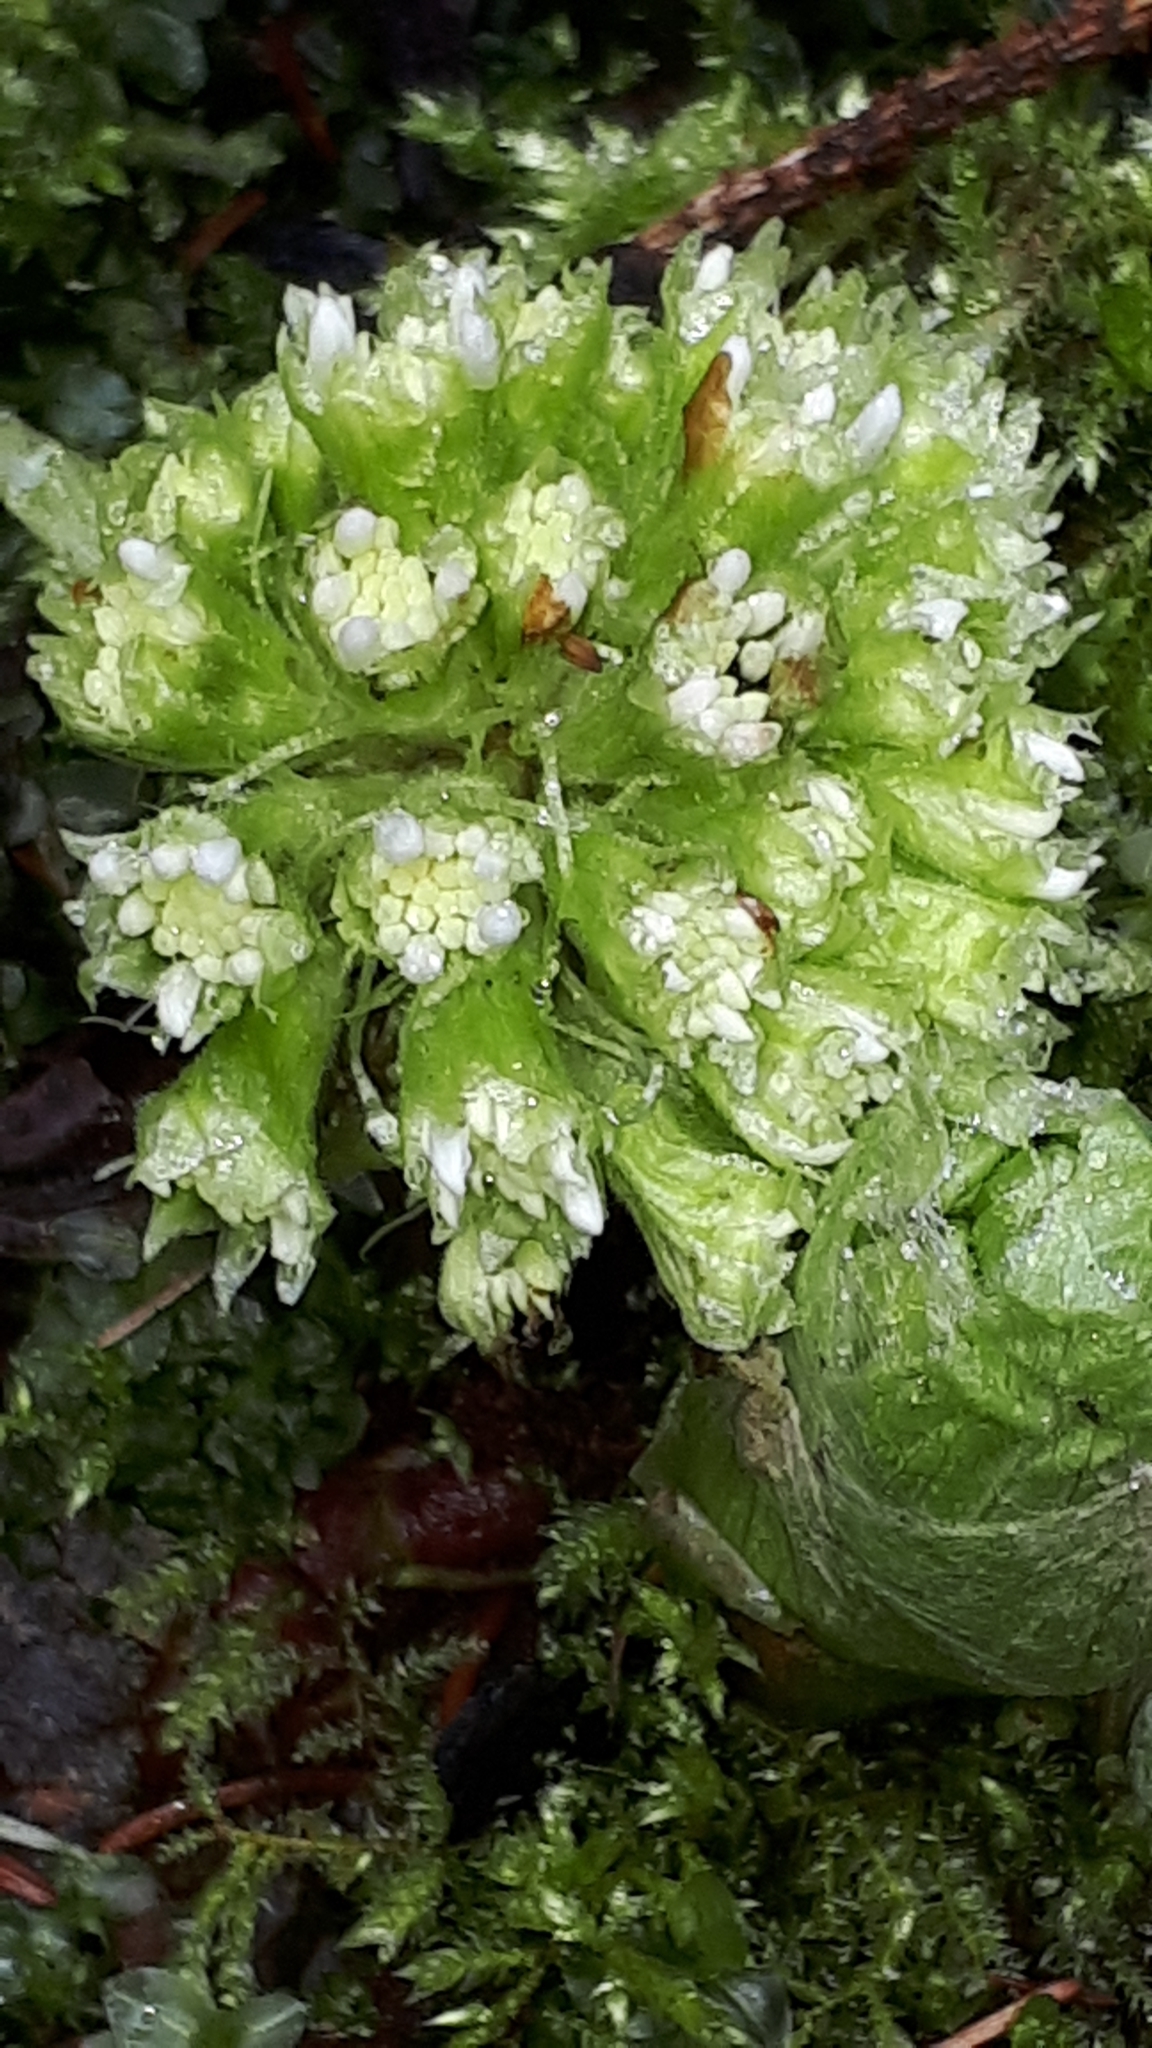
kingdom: Plantae
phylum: Tracheophyta
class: Magnoliopsida
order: Asterales
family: Asteraceae
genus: Petasites
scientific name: Petasites albus
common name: White butterbur
